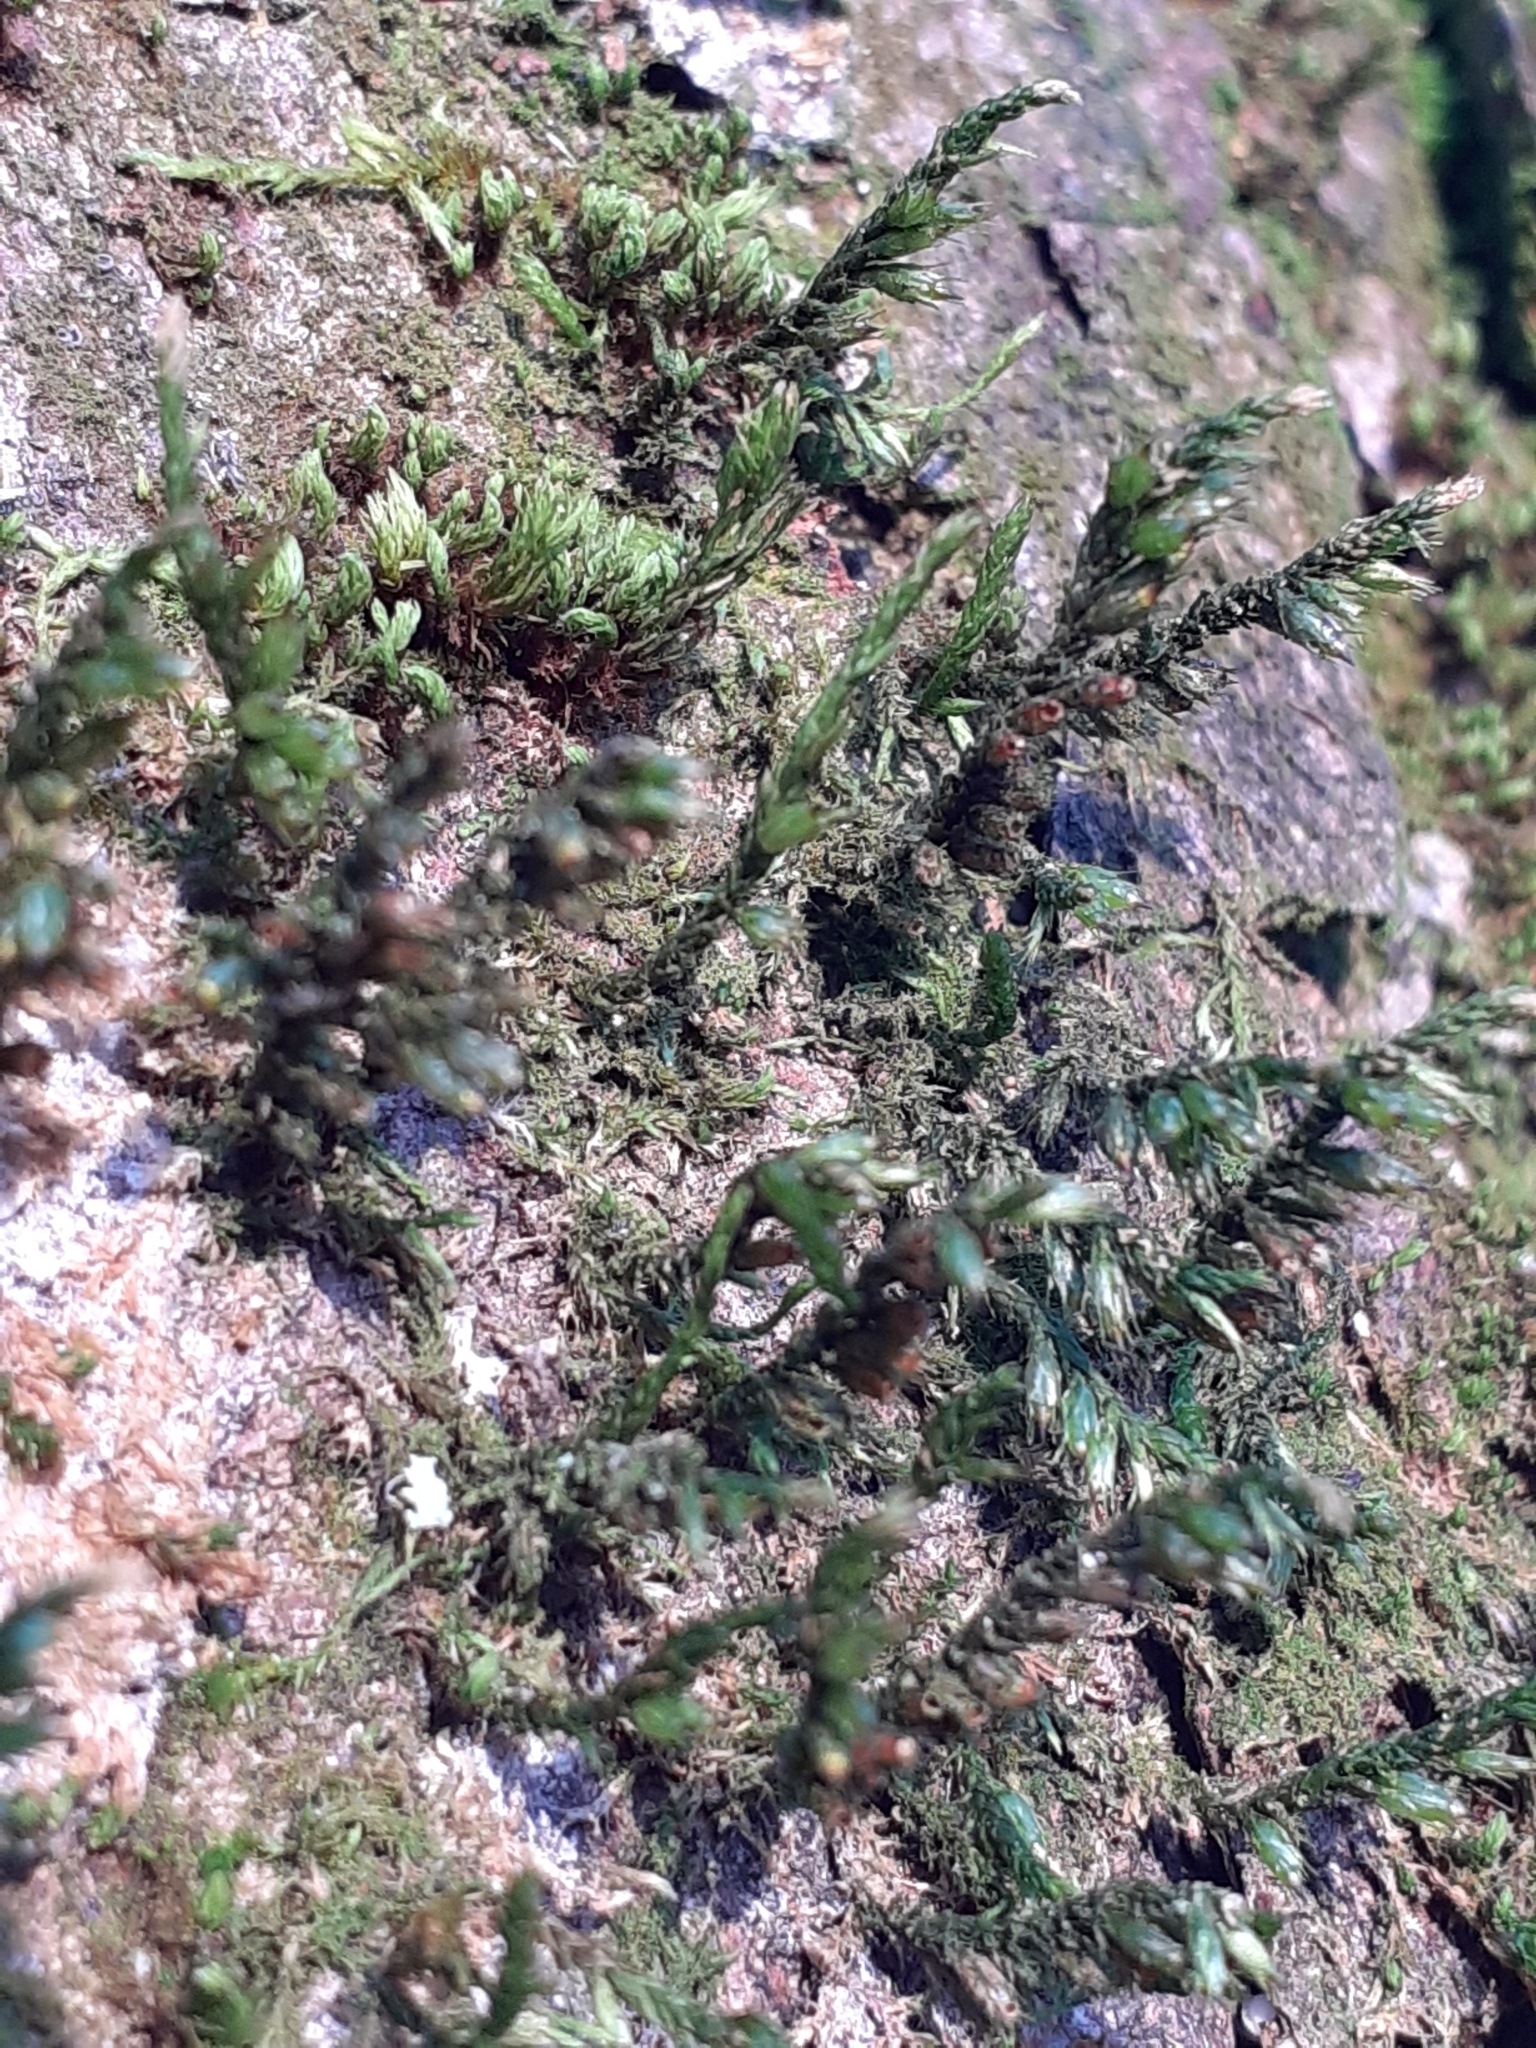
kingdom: Plantae
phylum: Bryophyta
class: Bryopsida
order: Hypnales
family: Cryphaeaceae
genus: Cryphaea
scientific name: Cryphaea heteromalla
